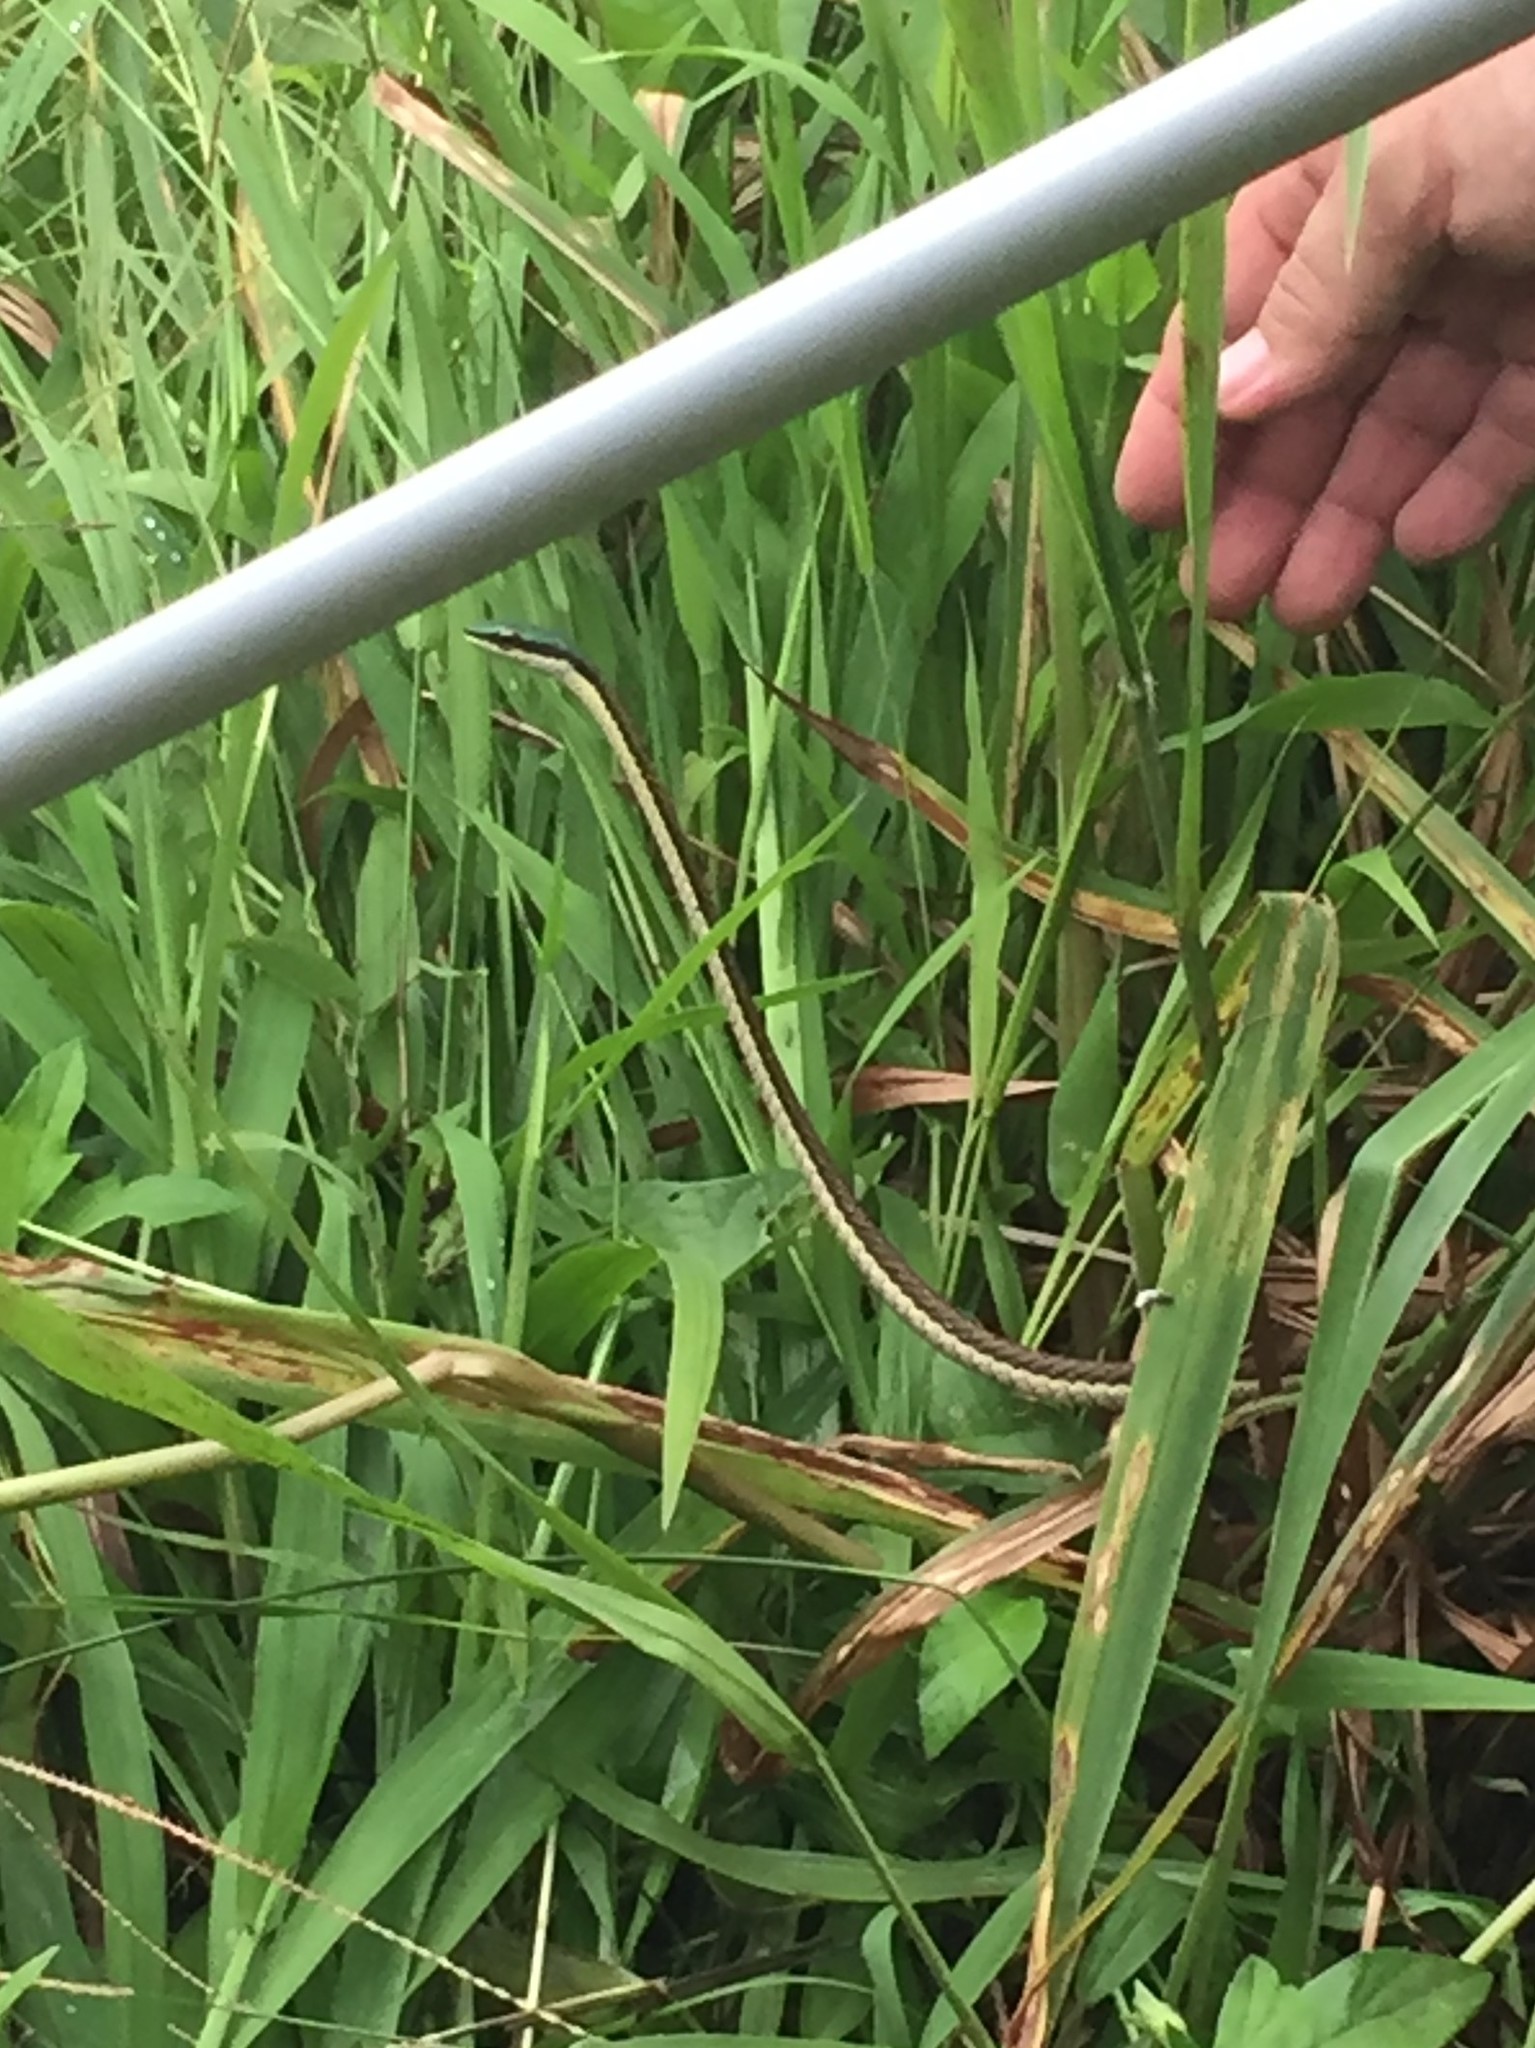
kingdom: Animalia
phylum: Chordata
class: Squamata
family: Colubridae
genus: Leptophis
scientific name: Leptophis mexicanus
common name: Mexican parrot snake
